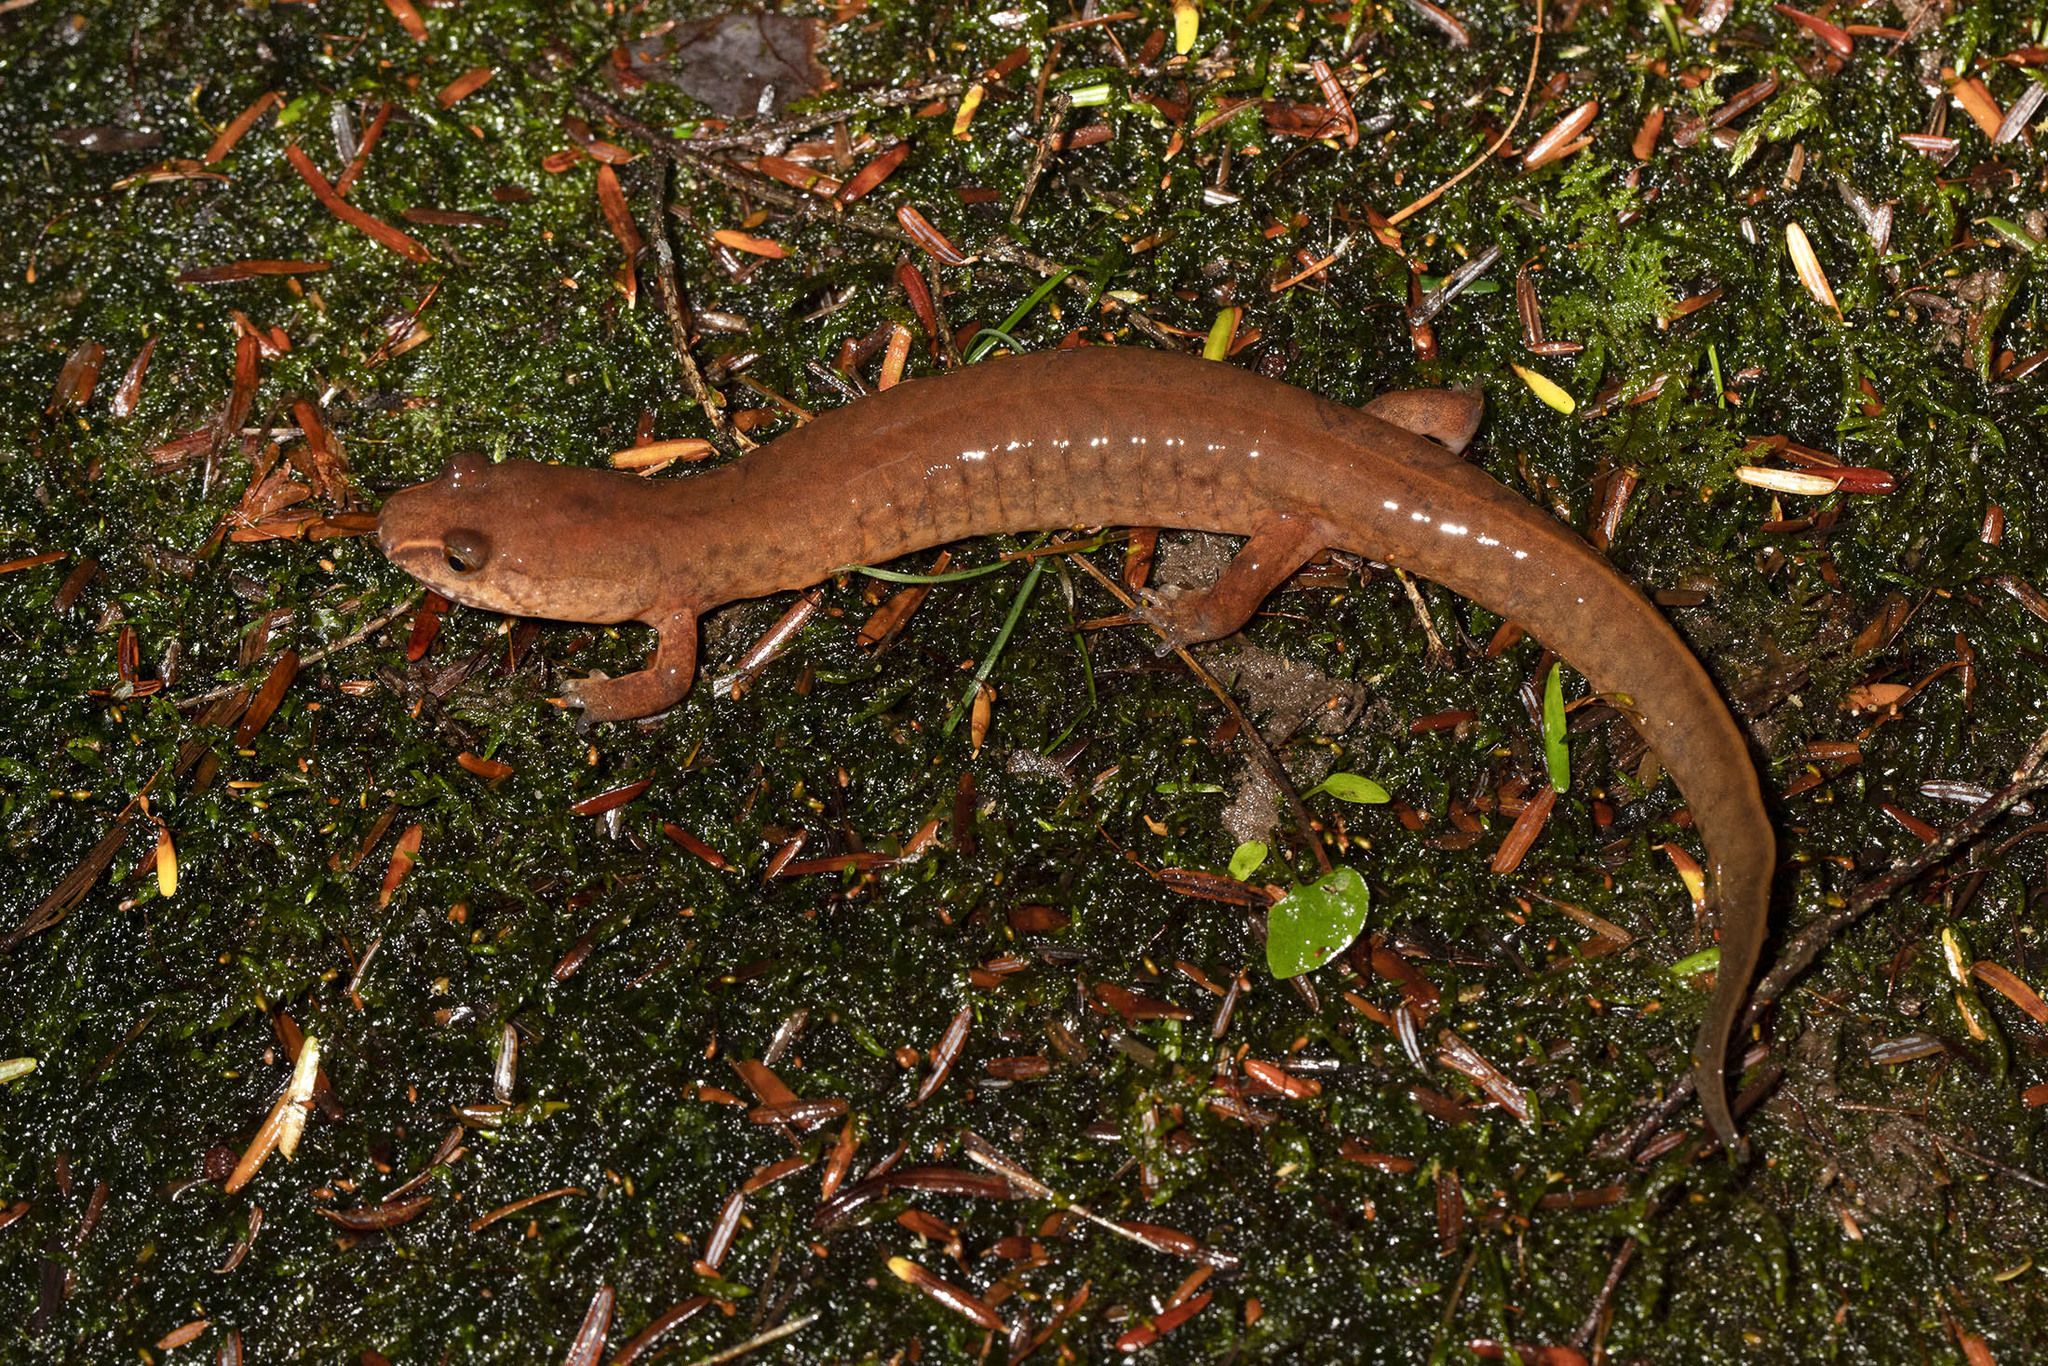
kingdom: Animalia
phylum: Chordata
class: Amphibia
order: Caudata
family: Plethodontidae
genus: Gyrinophilus
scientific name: Gyrinophilus porphyriticus
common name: Spring salamander
